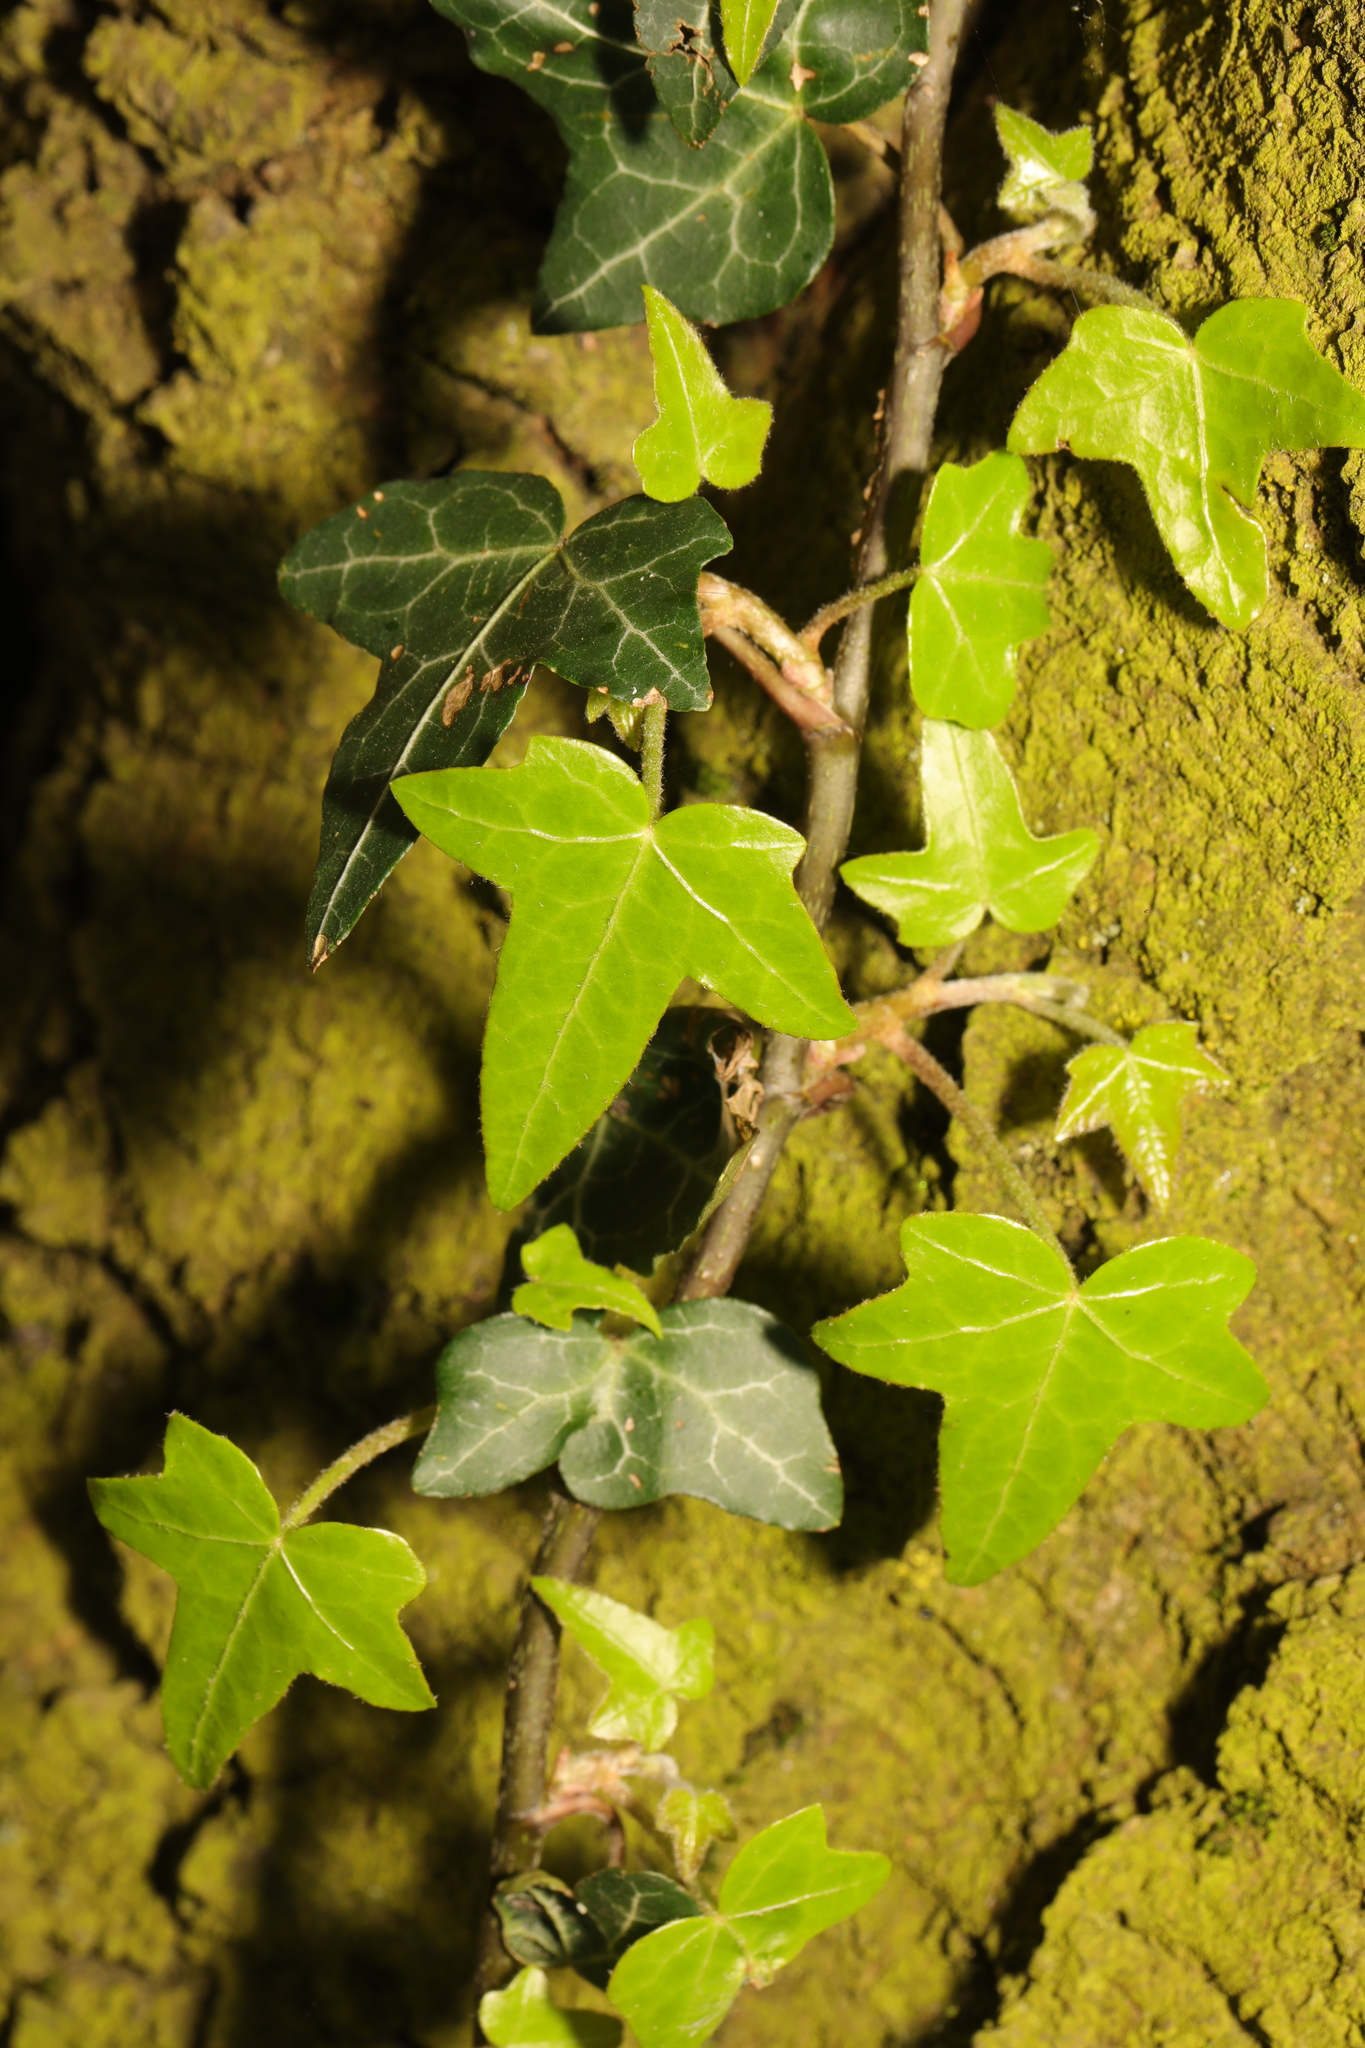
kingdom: Plantae
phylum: Tracheophyta
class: Magnoliopsida
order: Apiales
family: Araliaceae
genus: Hedera
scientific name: Hedera helix
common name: Ivy
